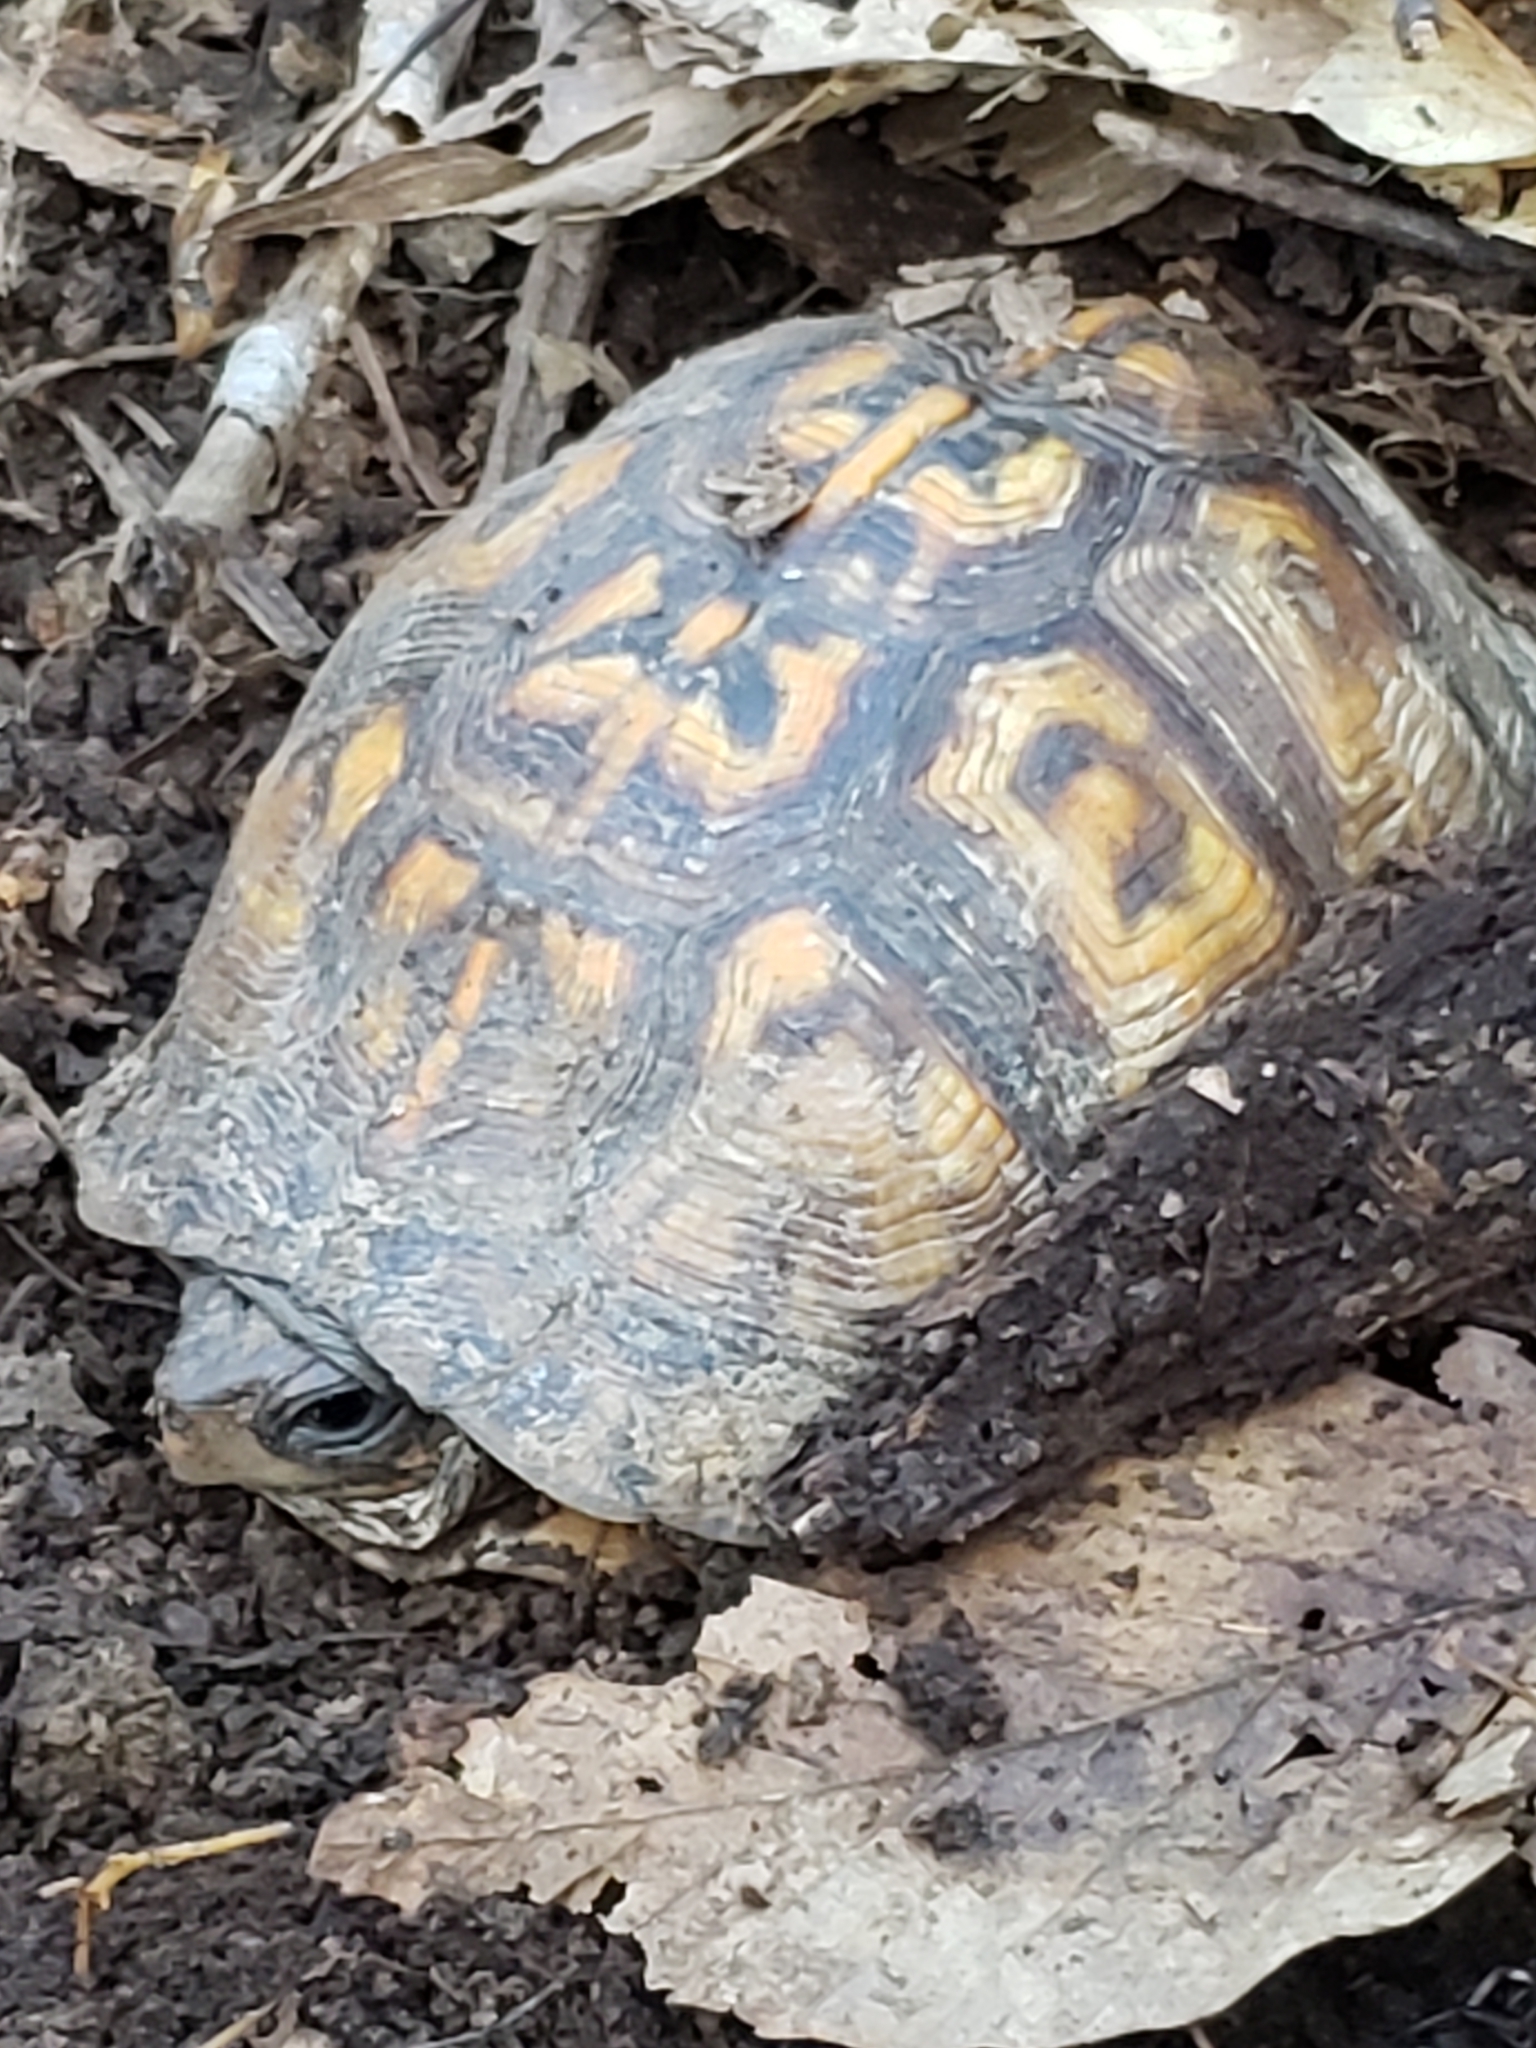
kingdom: Animalia
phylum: Chordata
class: Testudines
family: Emydidae
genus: Terrapene
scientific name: Terrapene carolina
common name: Common box turtle
